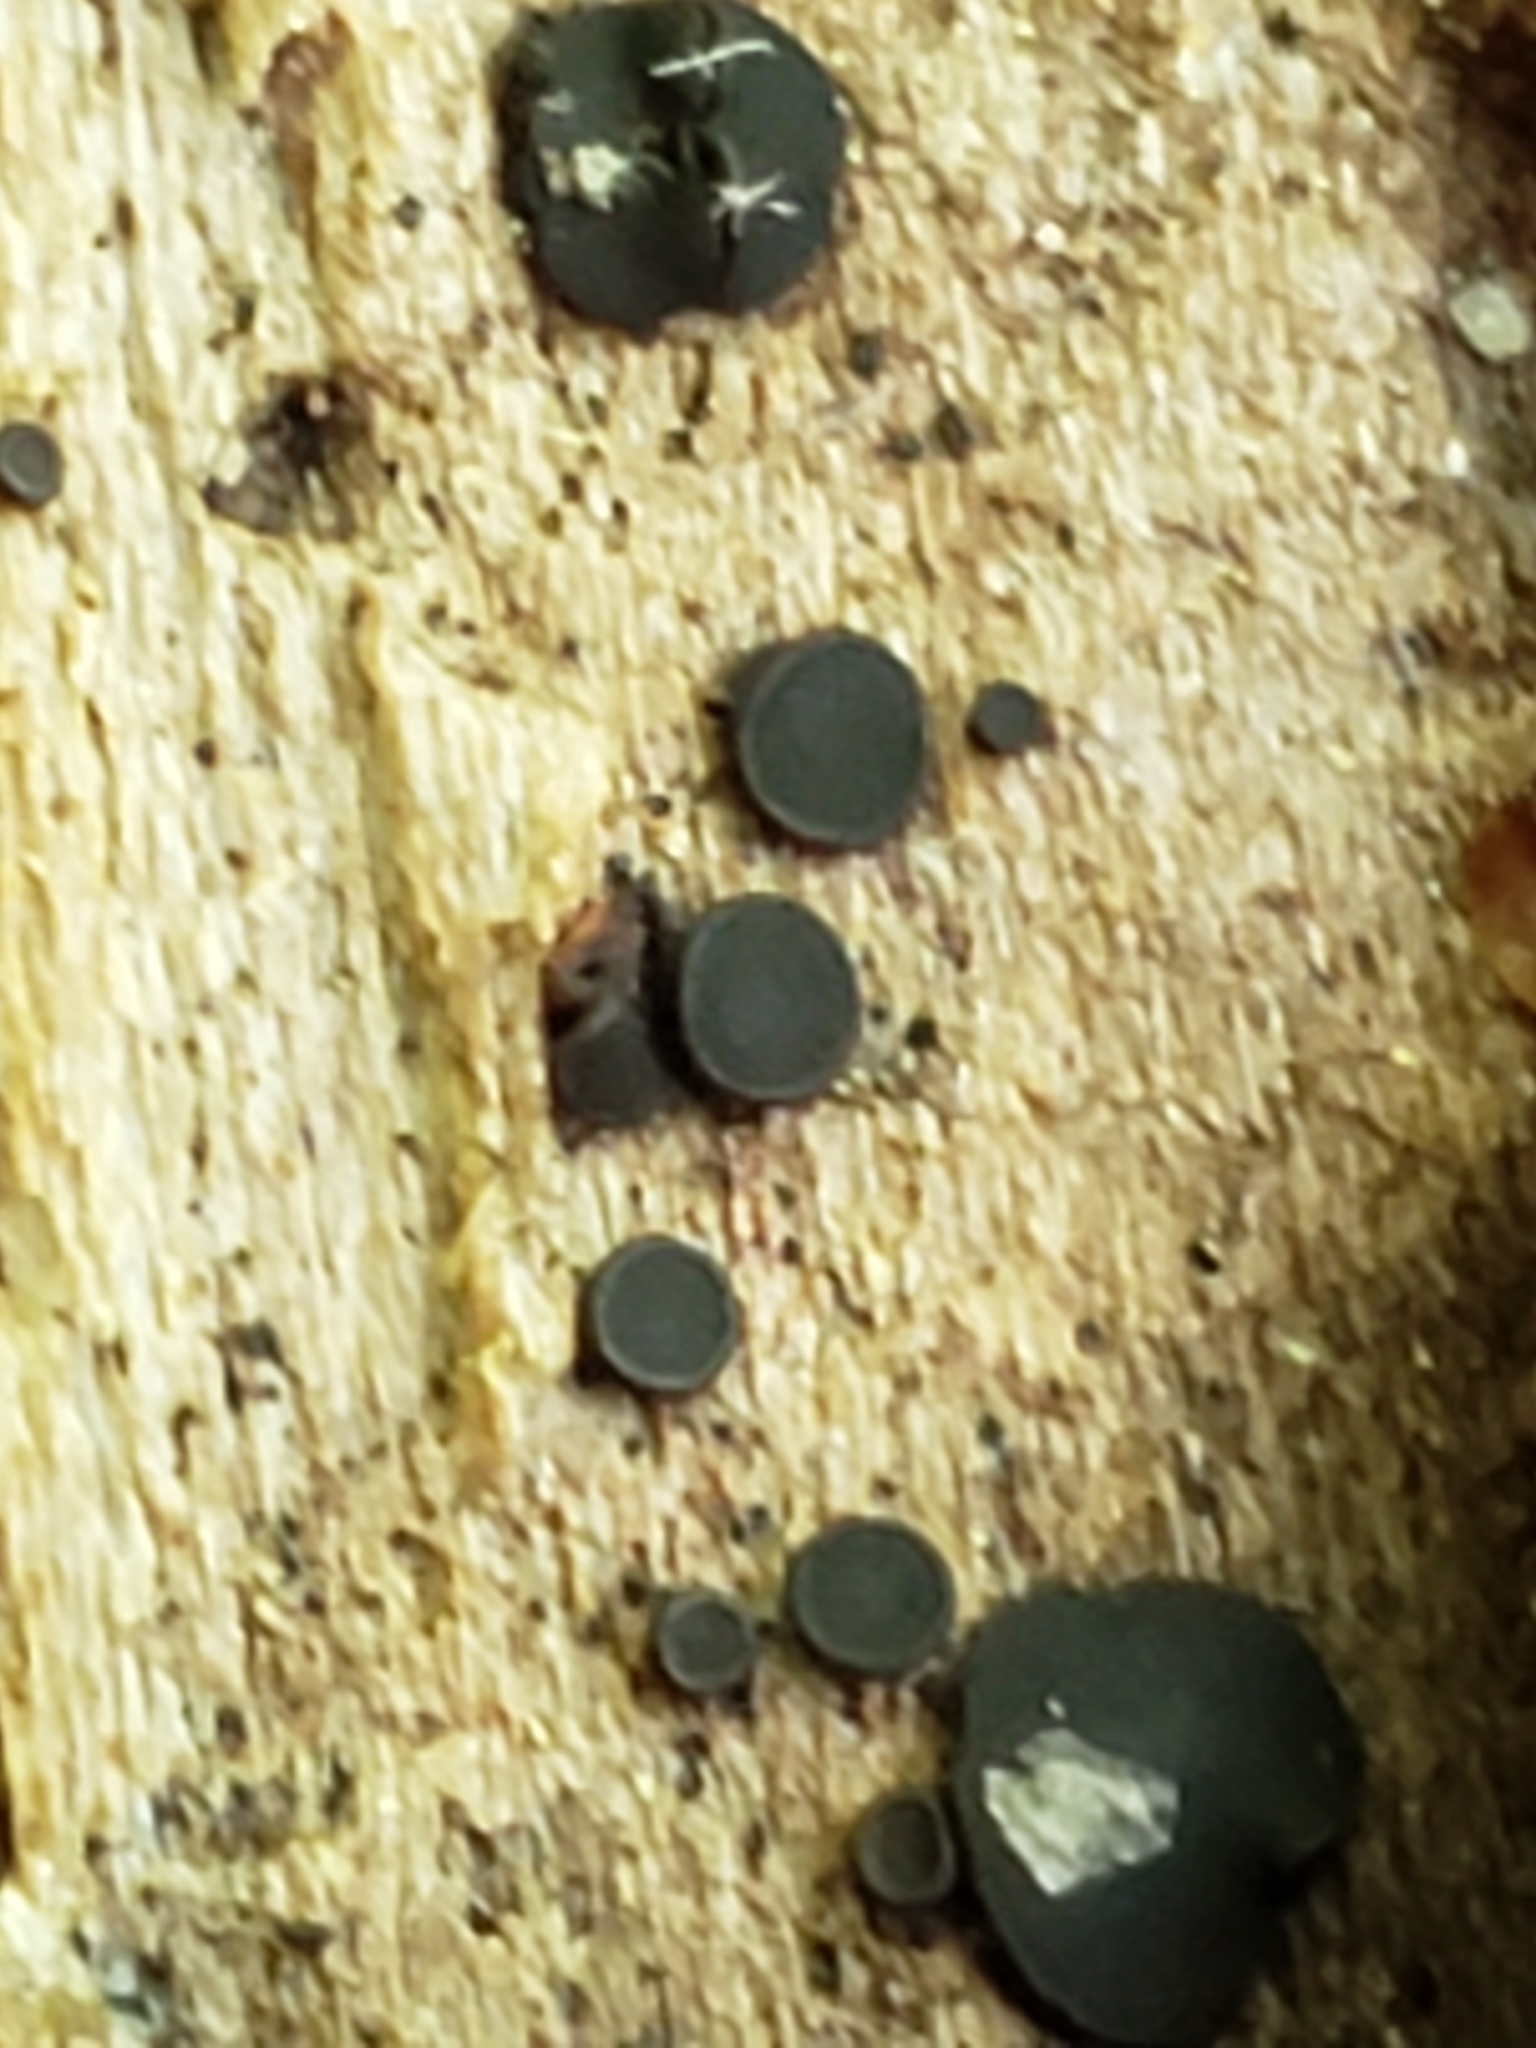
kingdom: Fungi
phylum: Ascomycota
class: Dothideomycetes
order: Patellariales
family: Patellariaceae
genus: Patellaria
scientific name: Patellaria atrata
